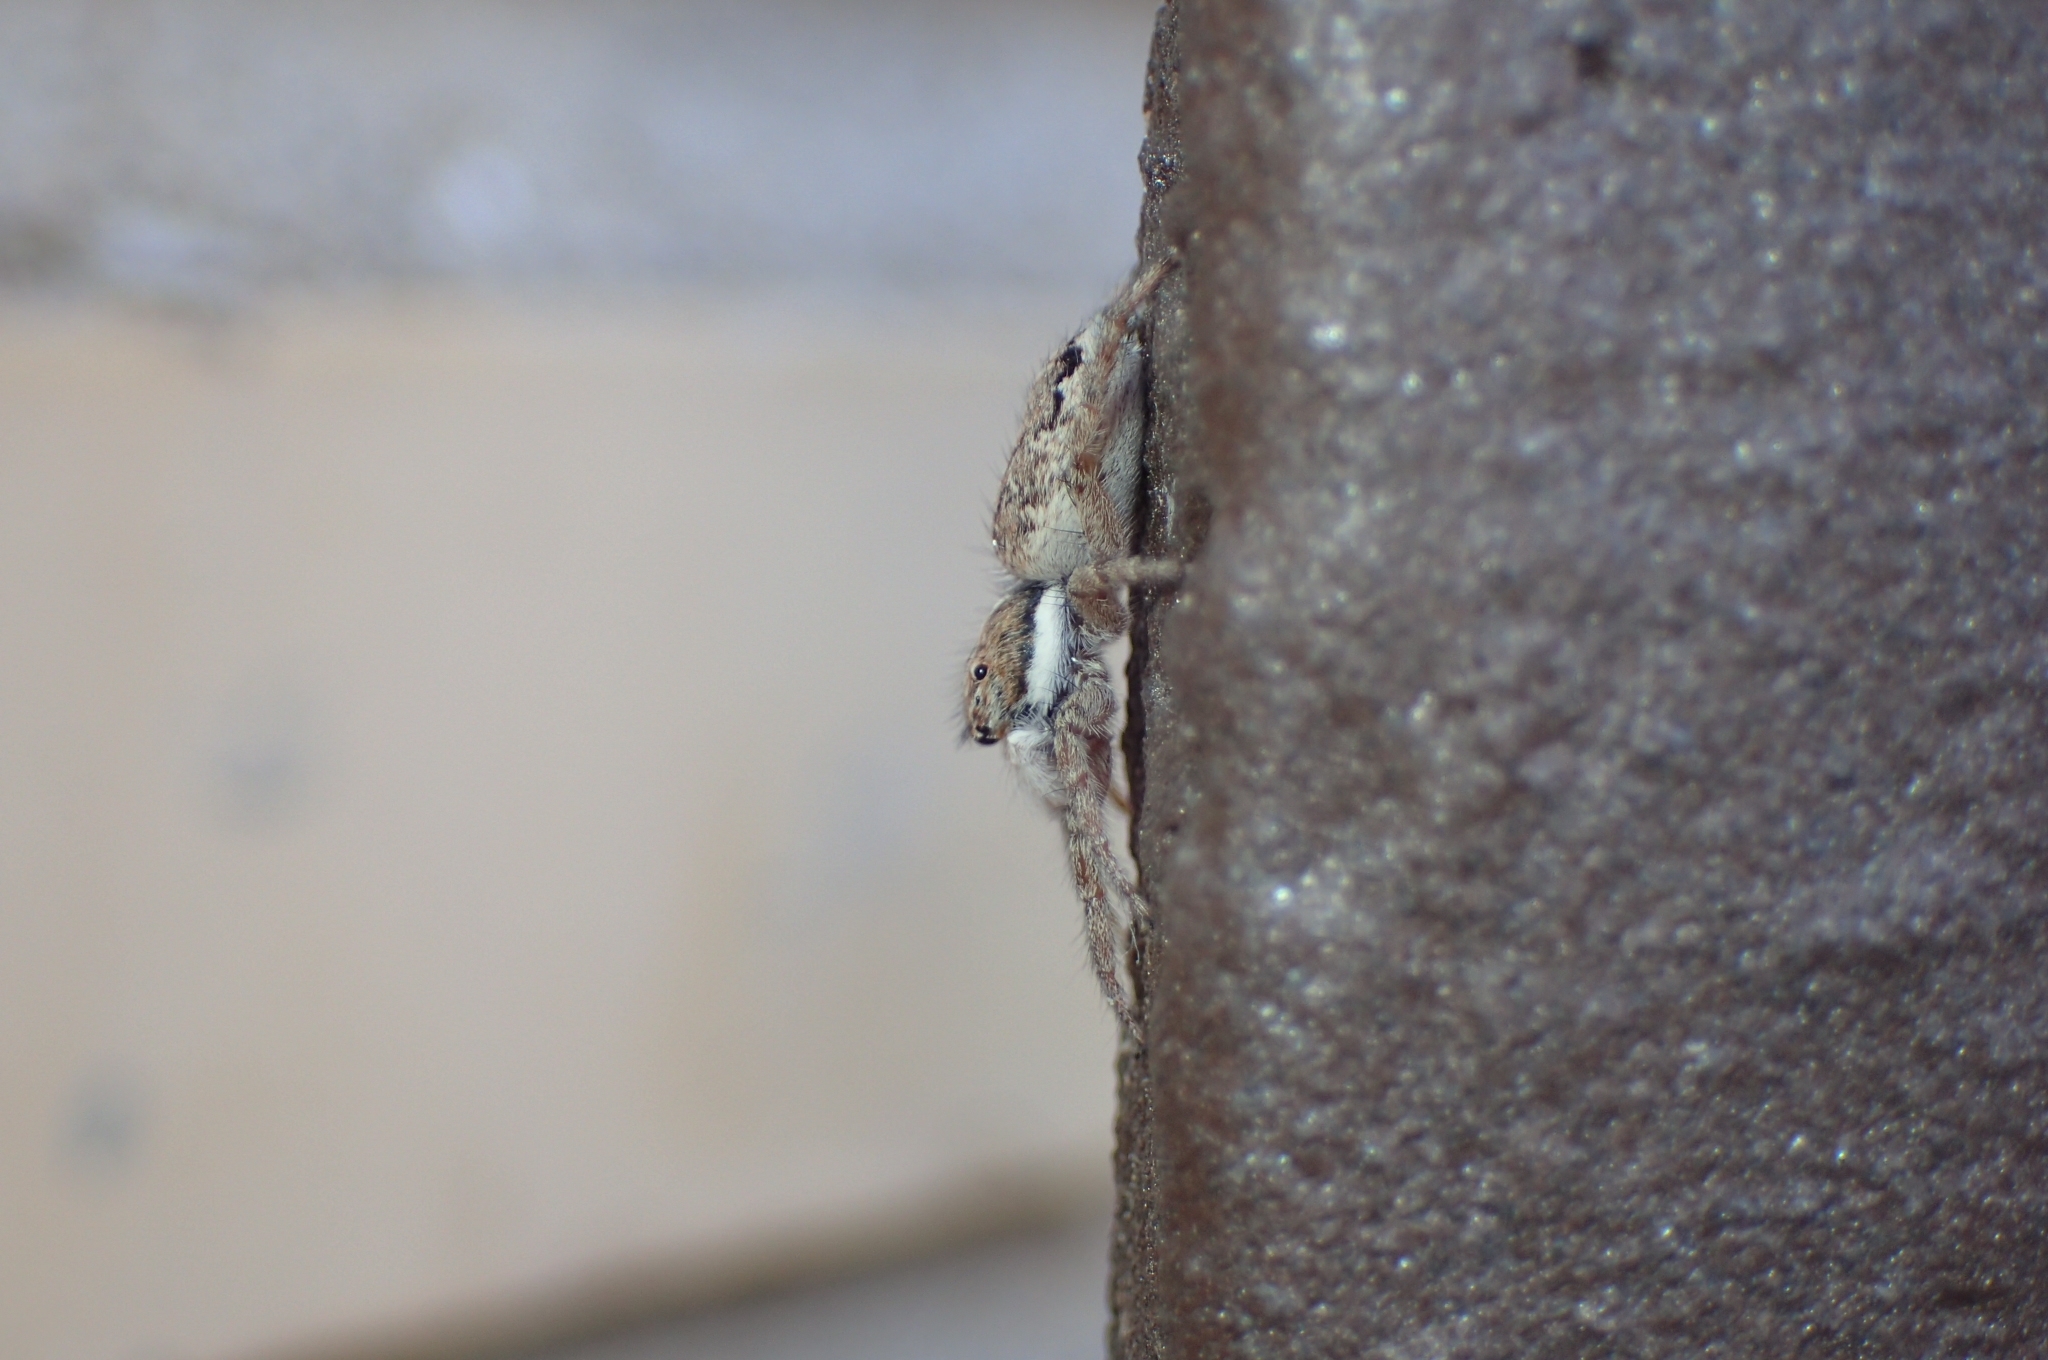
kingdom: Animalia
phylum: Arthropoda
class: Arachnida
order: Araneae
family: Salticidae
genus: Menemerus
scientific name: Menemerus semilimbatus
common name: Jumping spider
